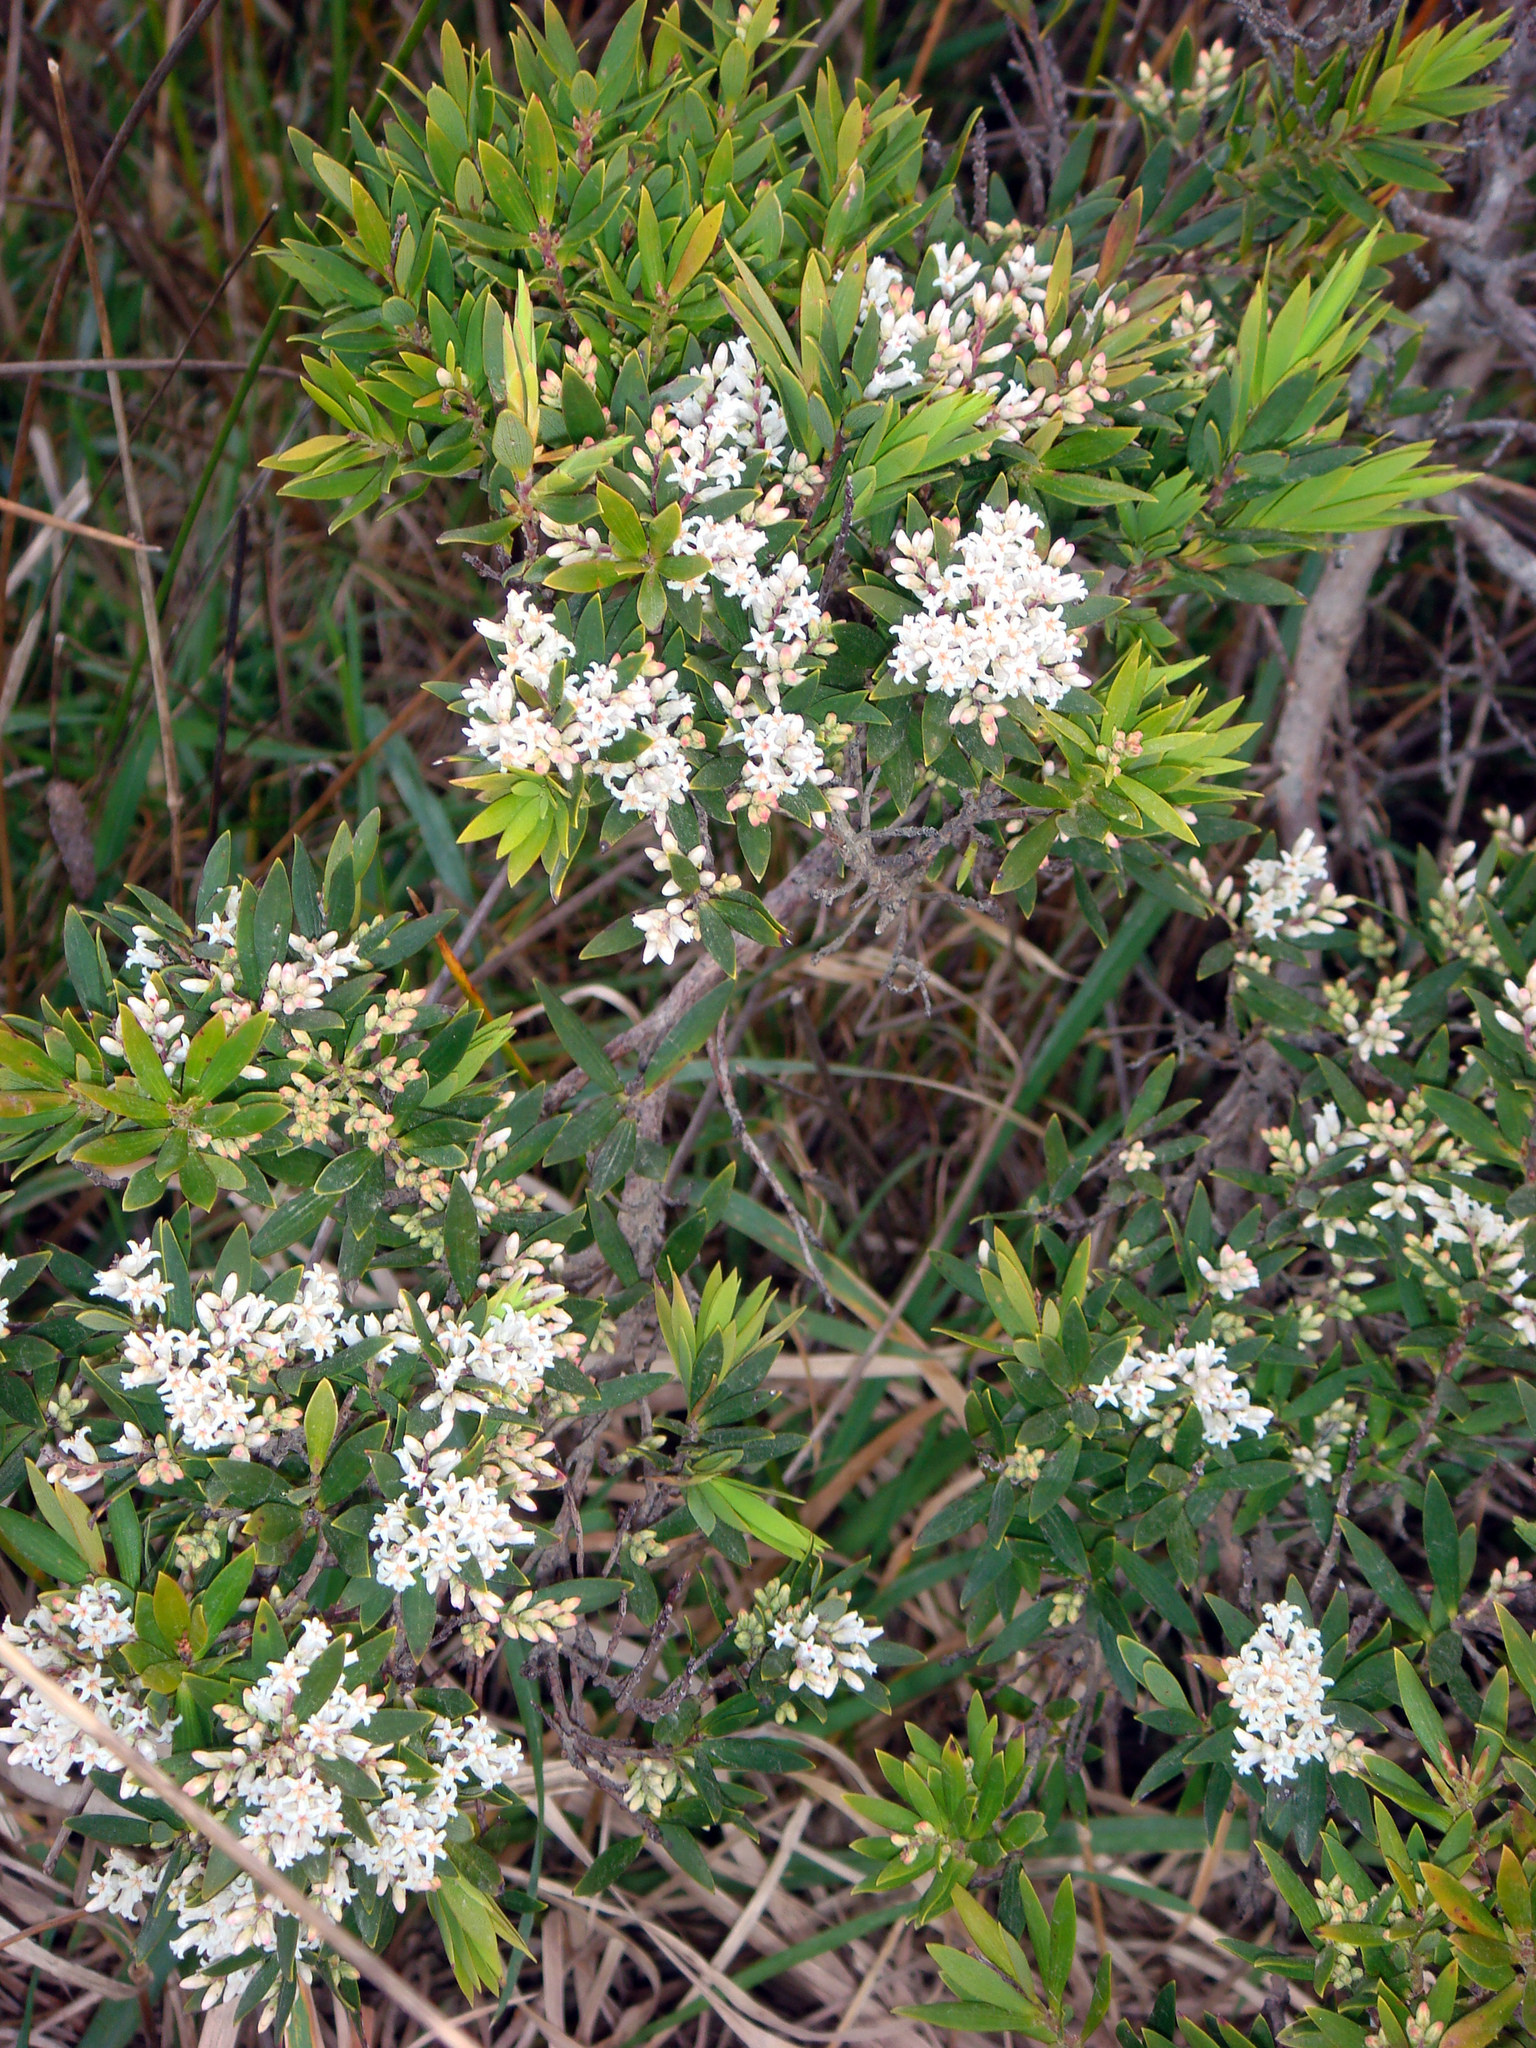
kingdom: Plantae
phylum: Tracheophyta
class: Magnoliopsida
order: Ericales
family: Ericaceae
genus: Leptecophylla
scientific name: Leptecophylla parvifolia
